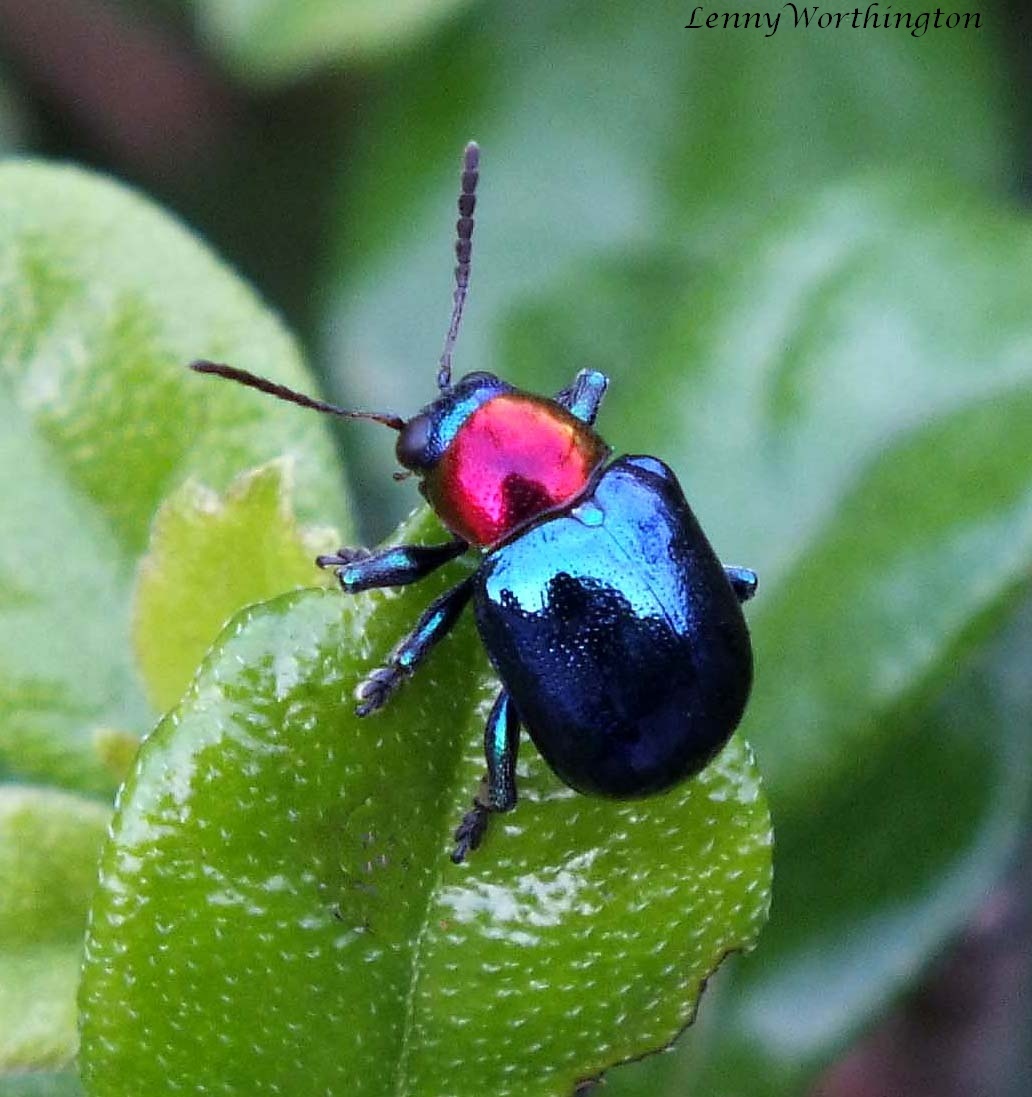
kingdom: Animalia
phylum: Arthropoda
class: Insecta
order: Coleoptera
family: Chrysomelidae
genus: Parheminodes
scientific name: Parheminodes
